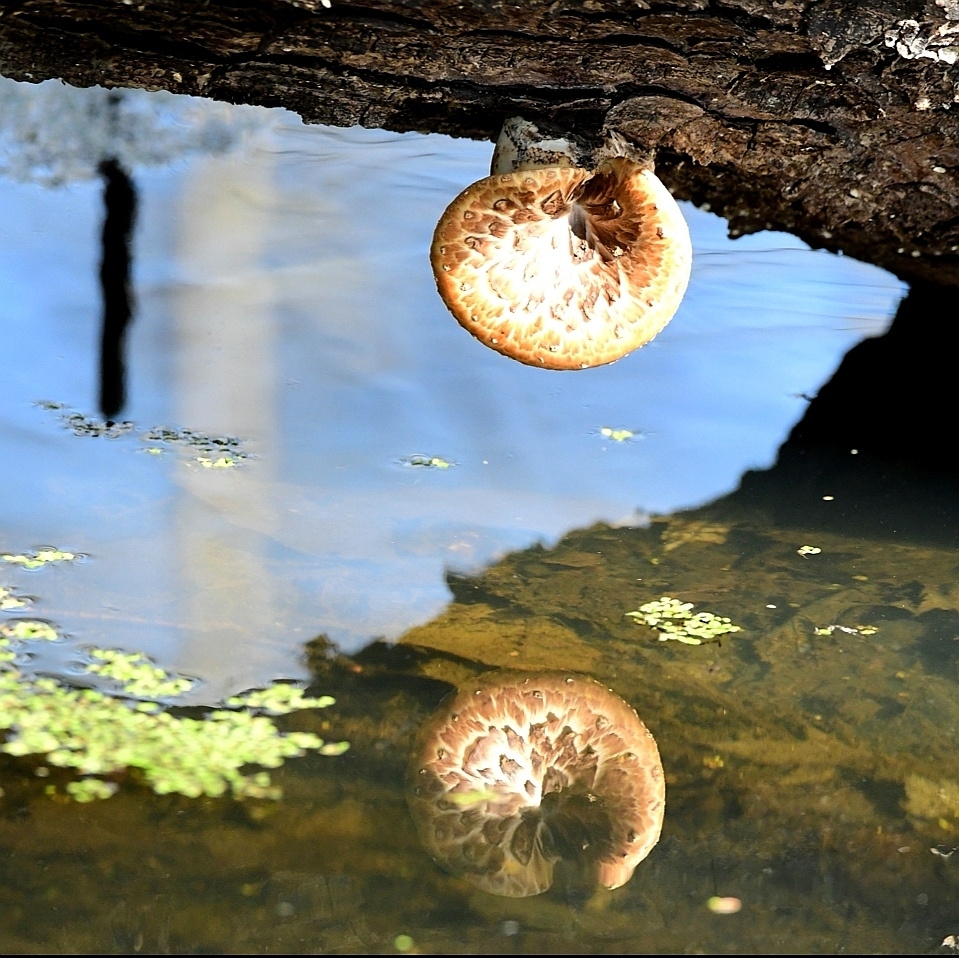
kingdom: Fungi
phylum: Basidiomycota
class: Agaricomycetes
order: Polyporales
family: Polyporaceae
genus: Cerioporus
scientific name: Cerioporus squamosus
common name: Dryad's saddle
